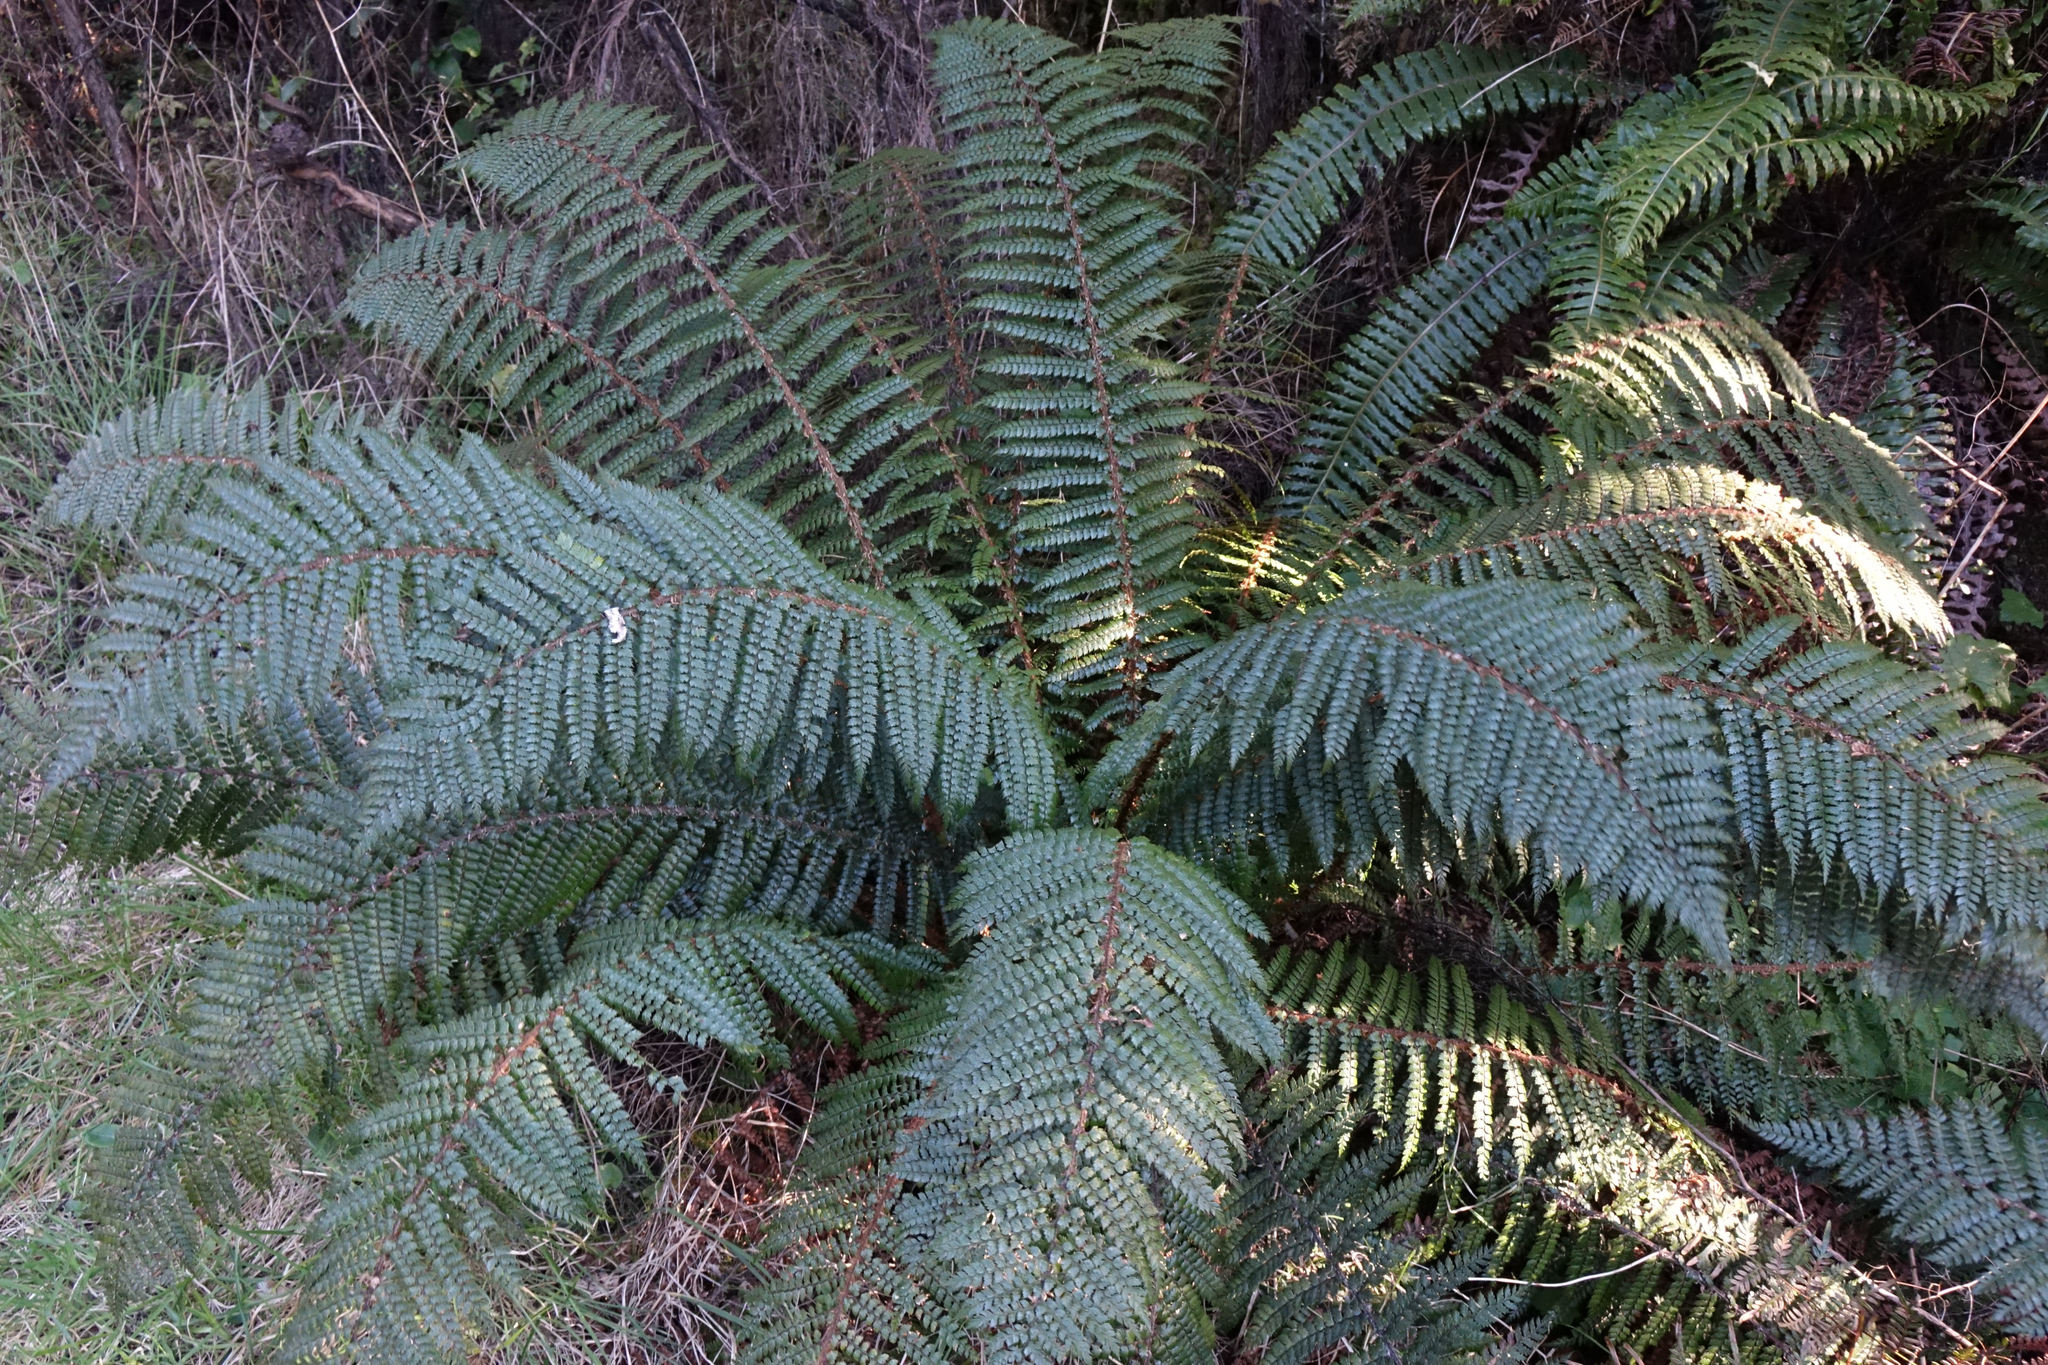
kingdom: Plantae
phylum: Tracheophyta
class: Polypodiopsida
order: Polypodiales
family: Dryopteridaceae
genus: Polystichum
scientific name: Polystichum vestitum
